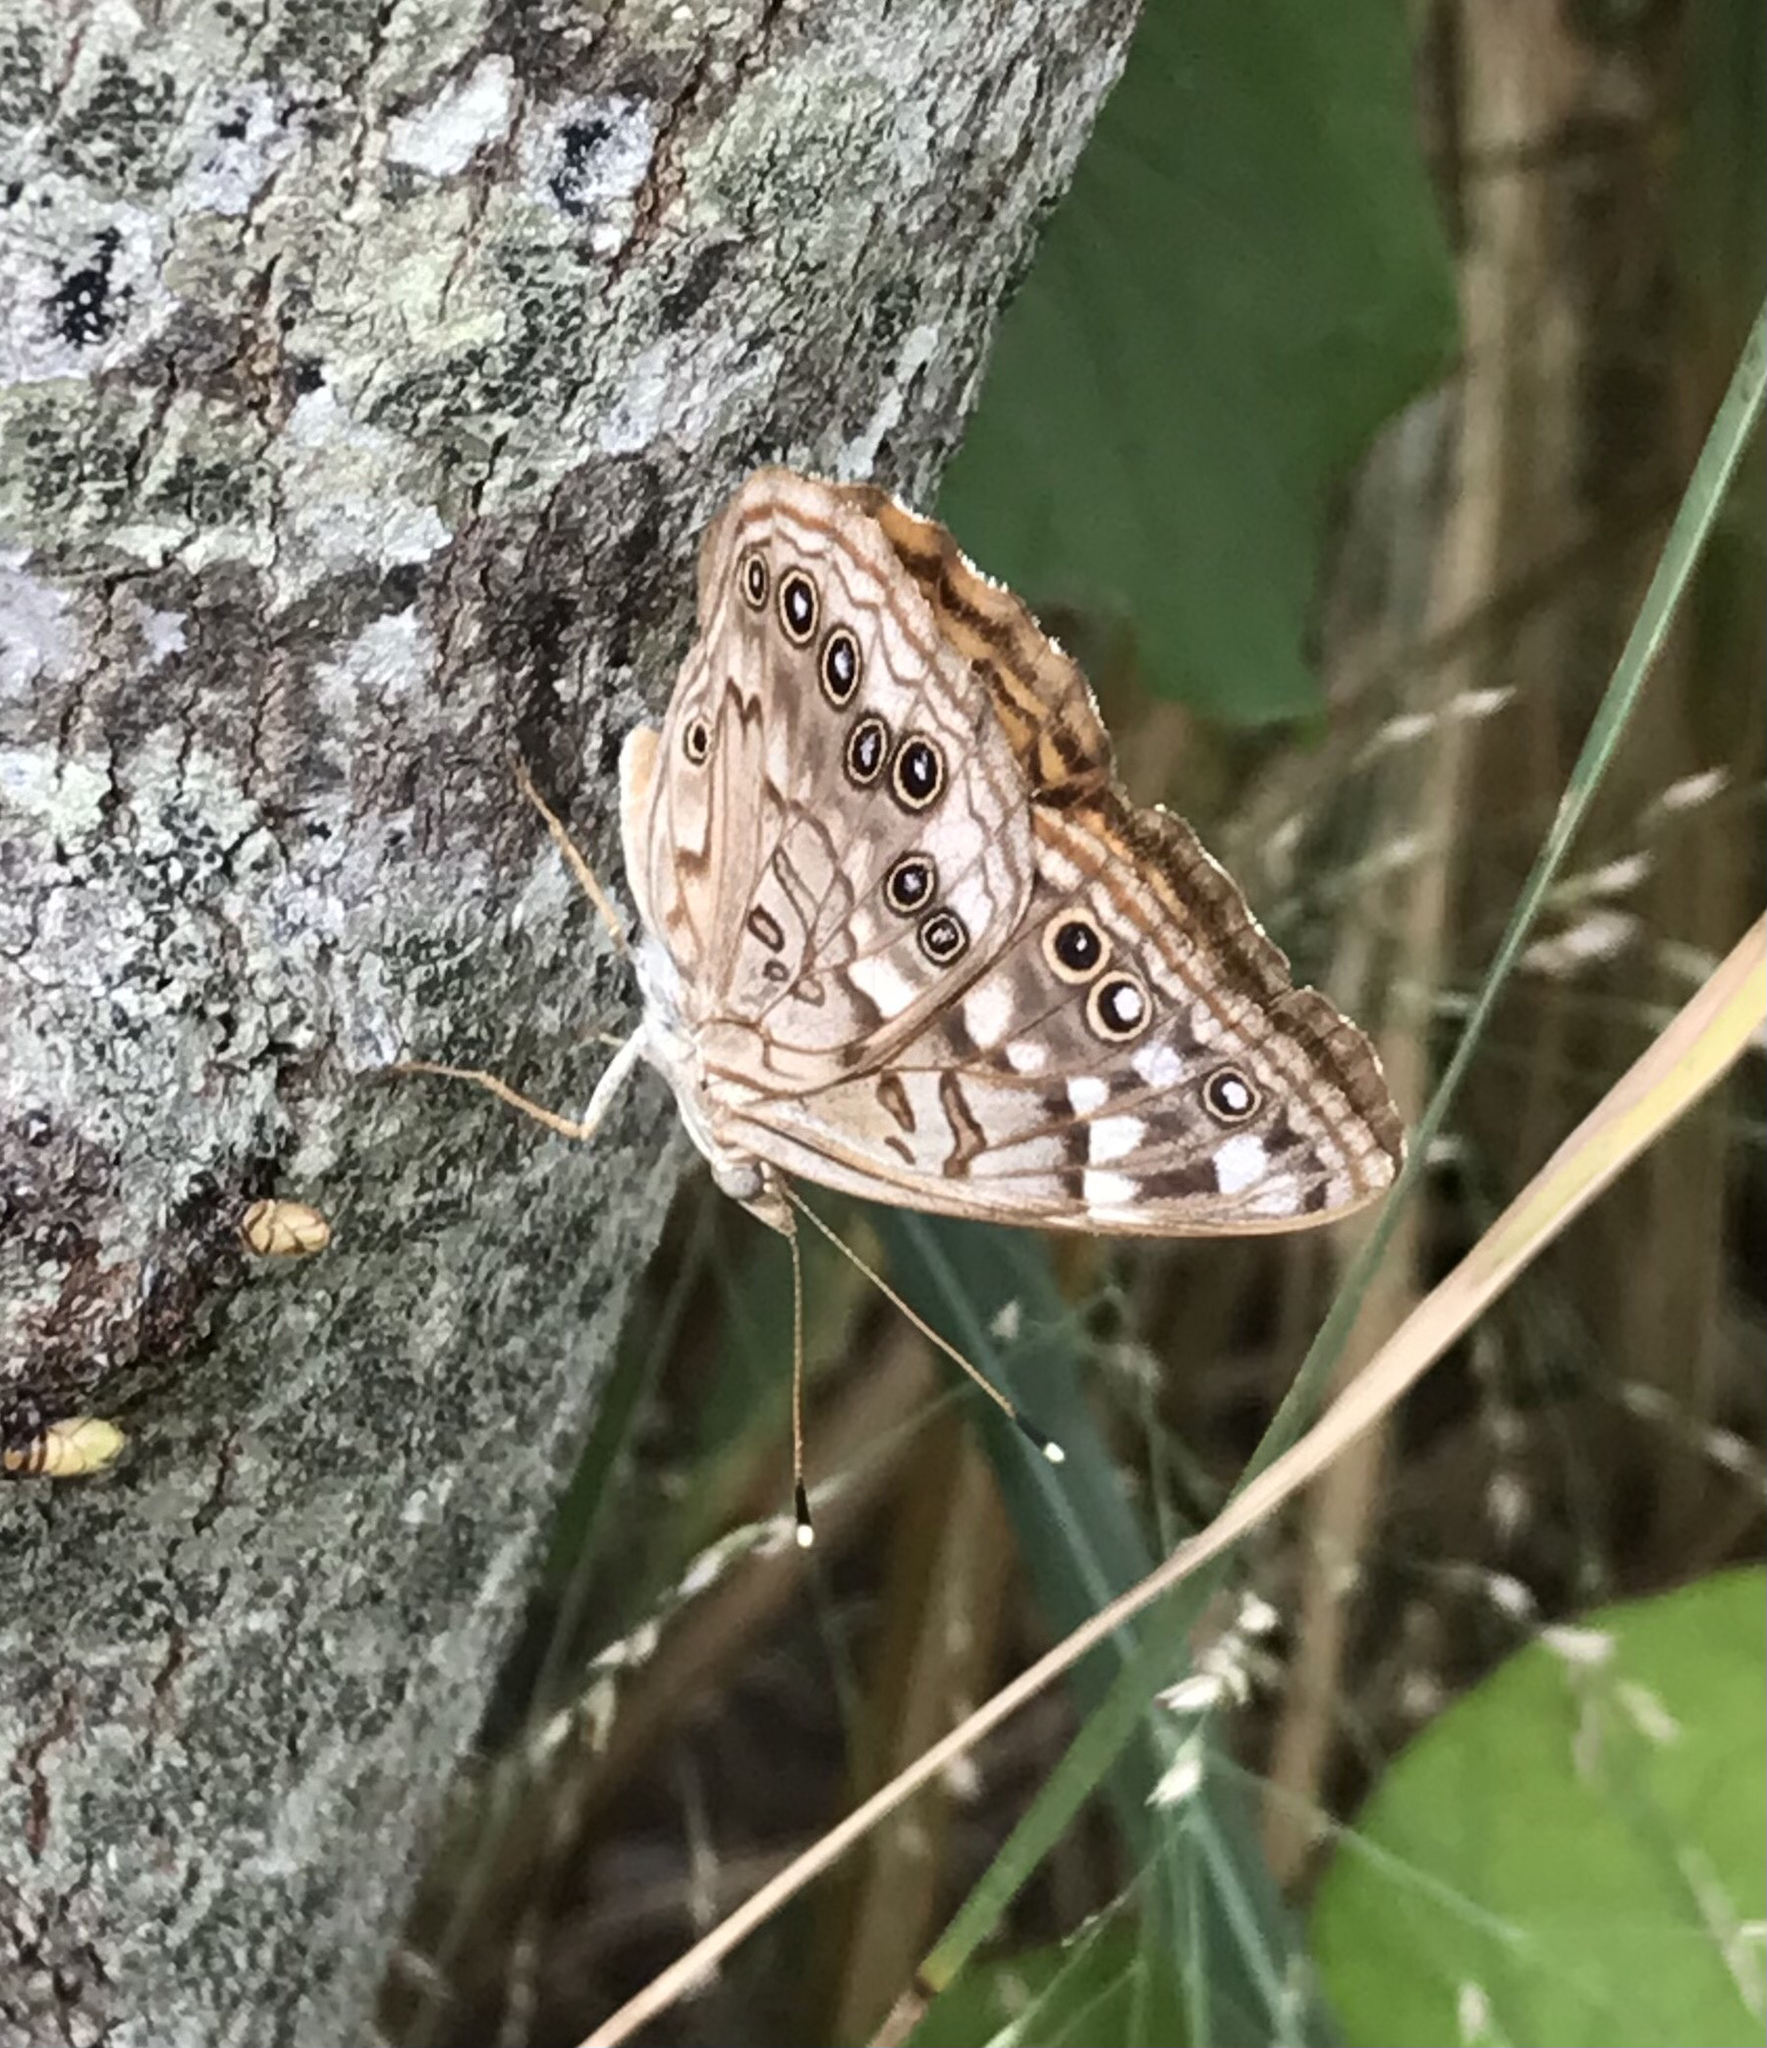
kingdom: Animalia
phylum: Arthropoda
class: Insecta
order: Lepidoptera
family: Nymphalidae
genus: Asterocampa
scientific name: Asterocampa celtis
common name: Hackberry emperor
